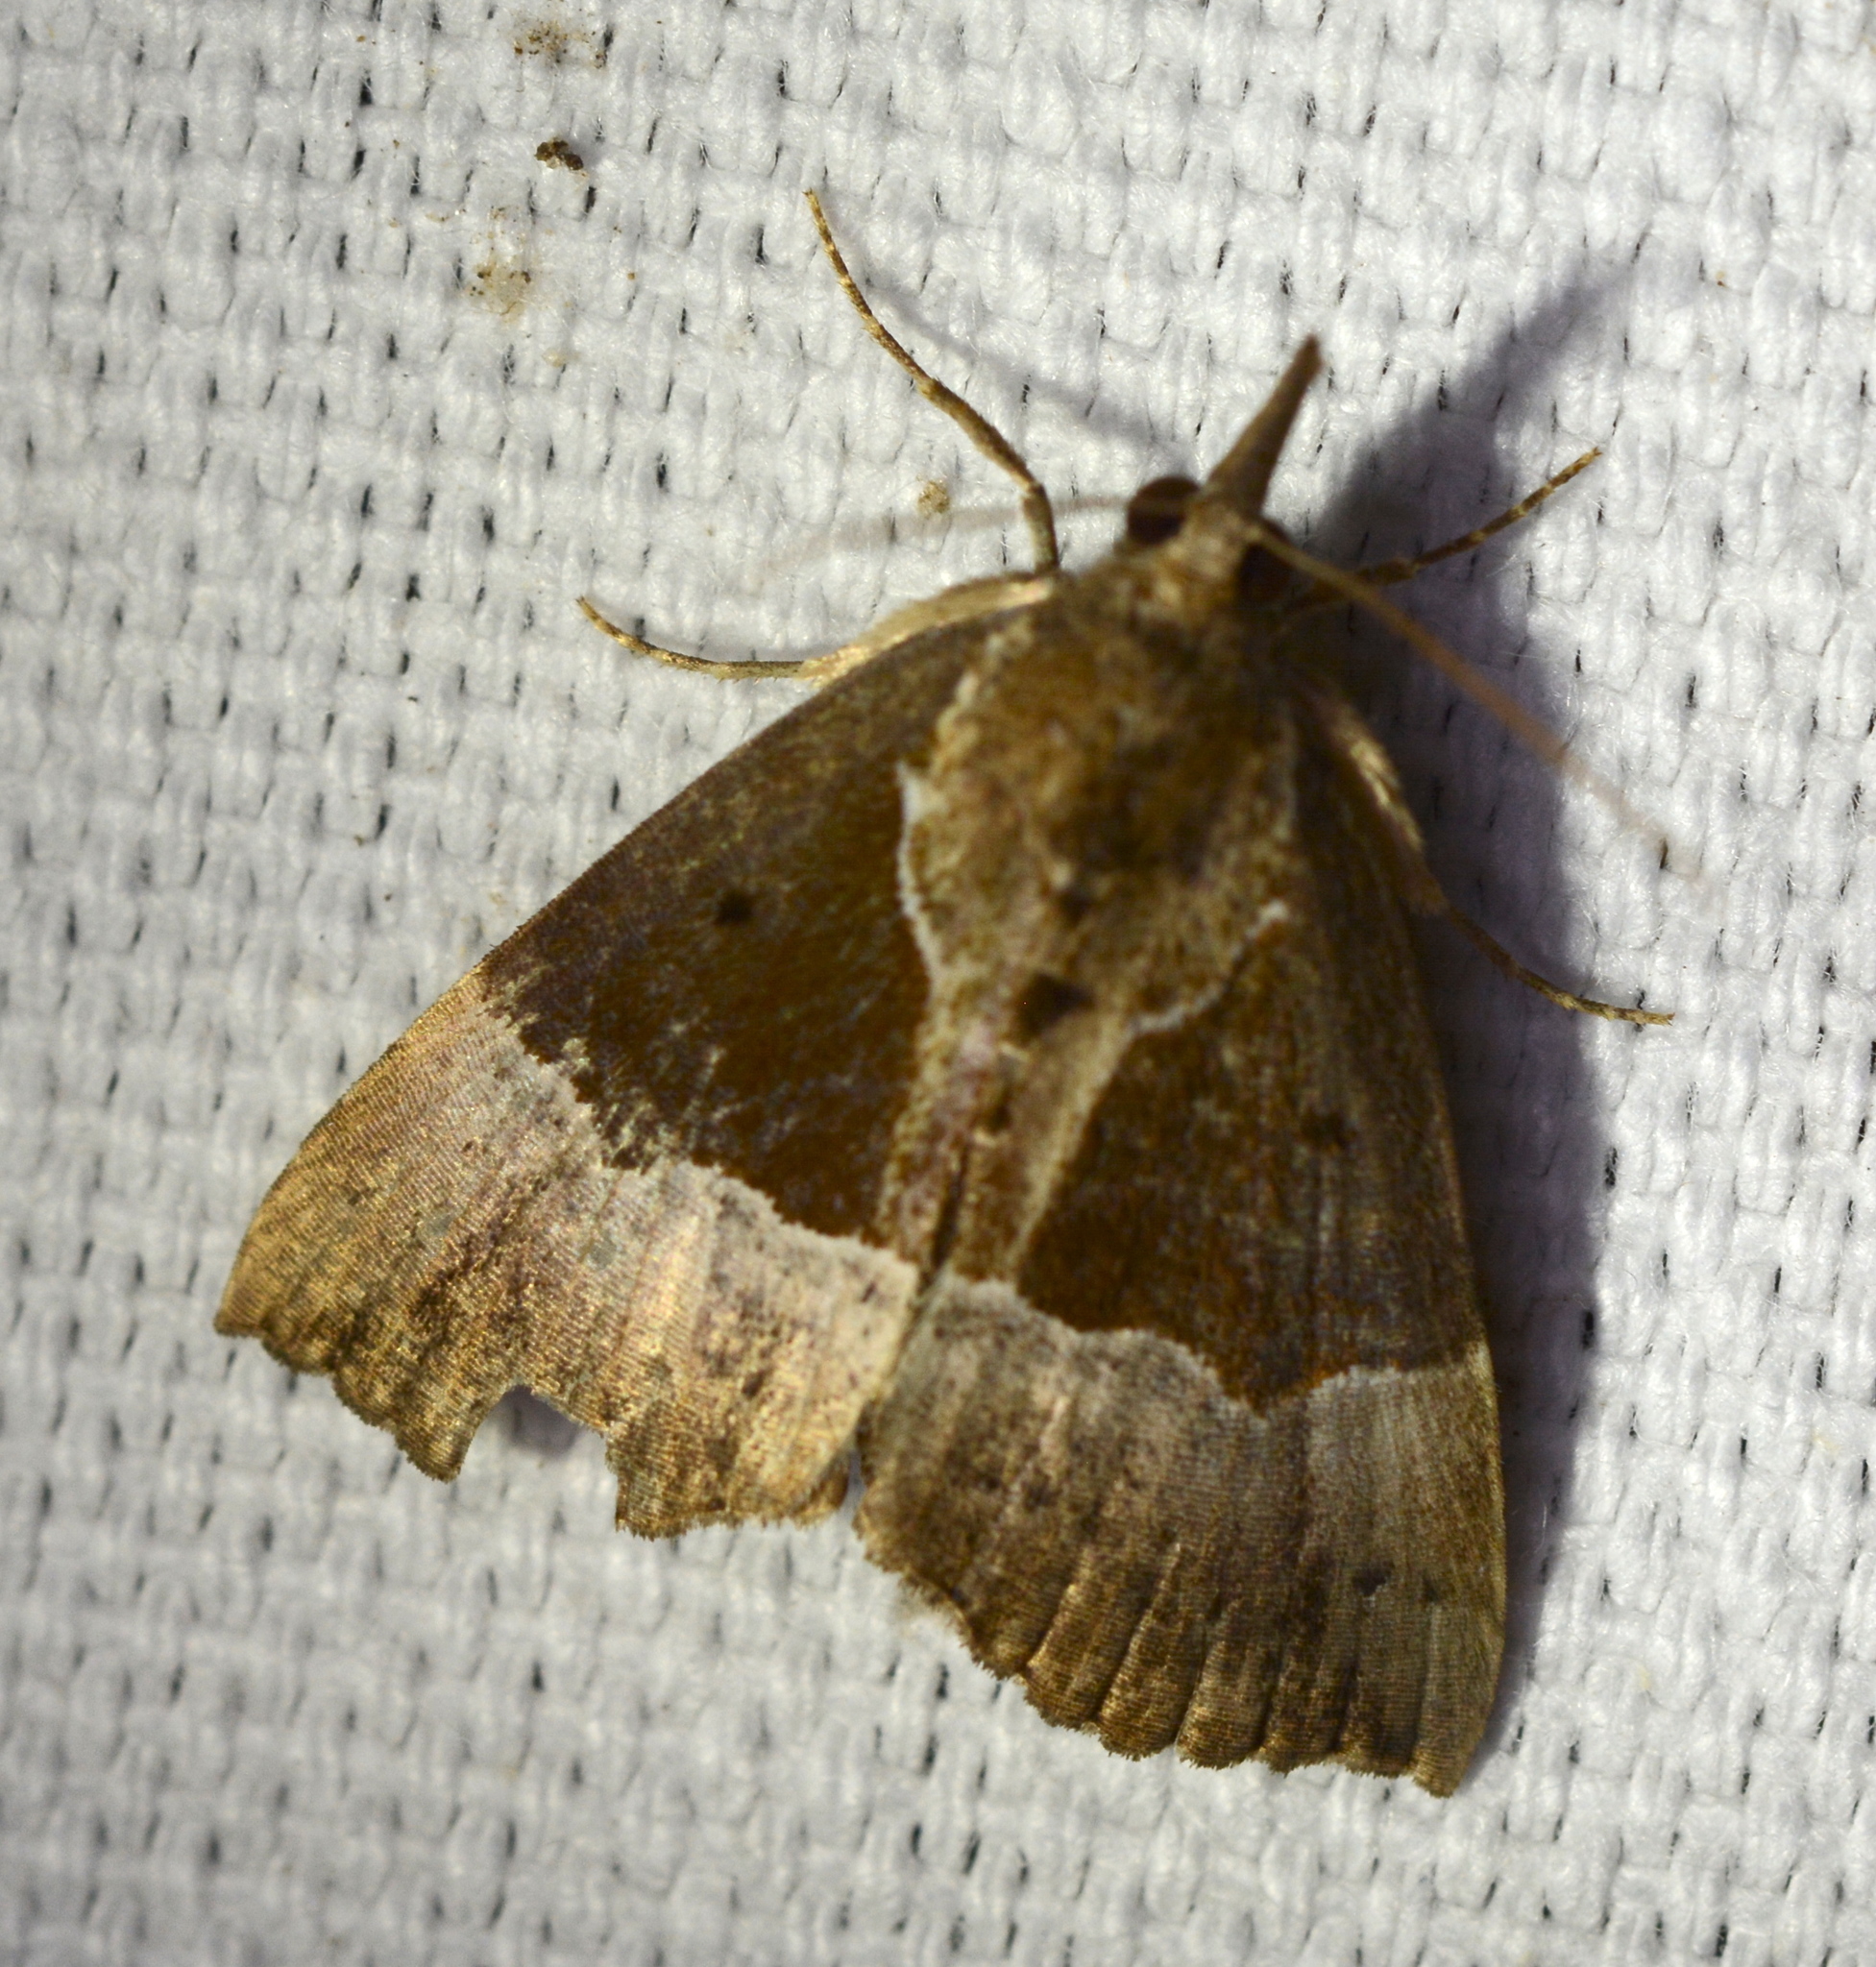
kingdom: Animalia
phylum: Arthropoda
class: Insecta
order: Lepidoptera
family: Erebidae
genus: Hypena
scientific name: Hypena bijugalis
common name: Dimorphic bomolocha moth
